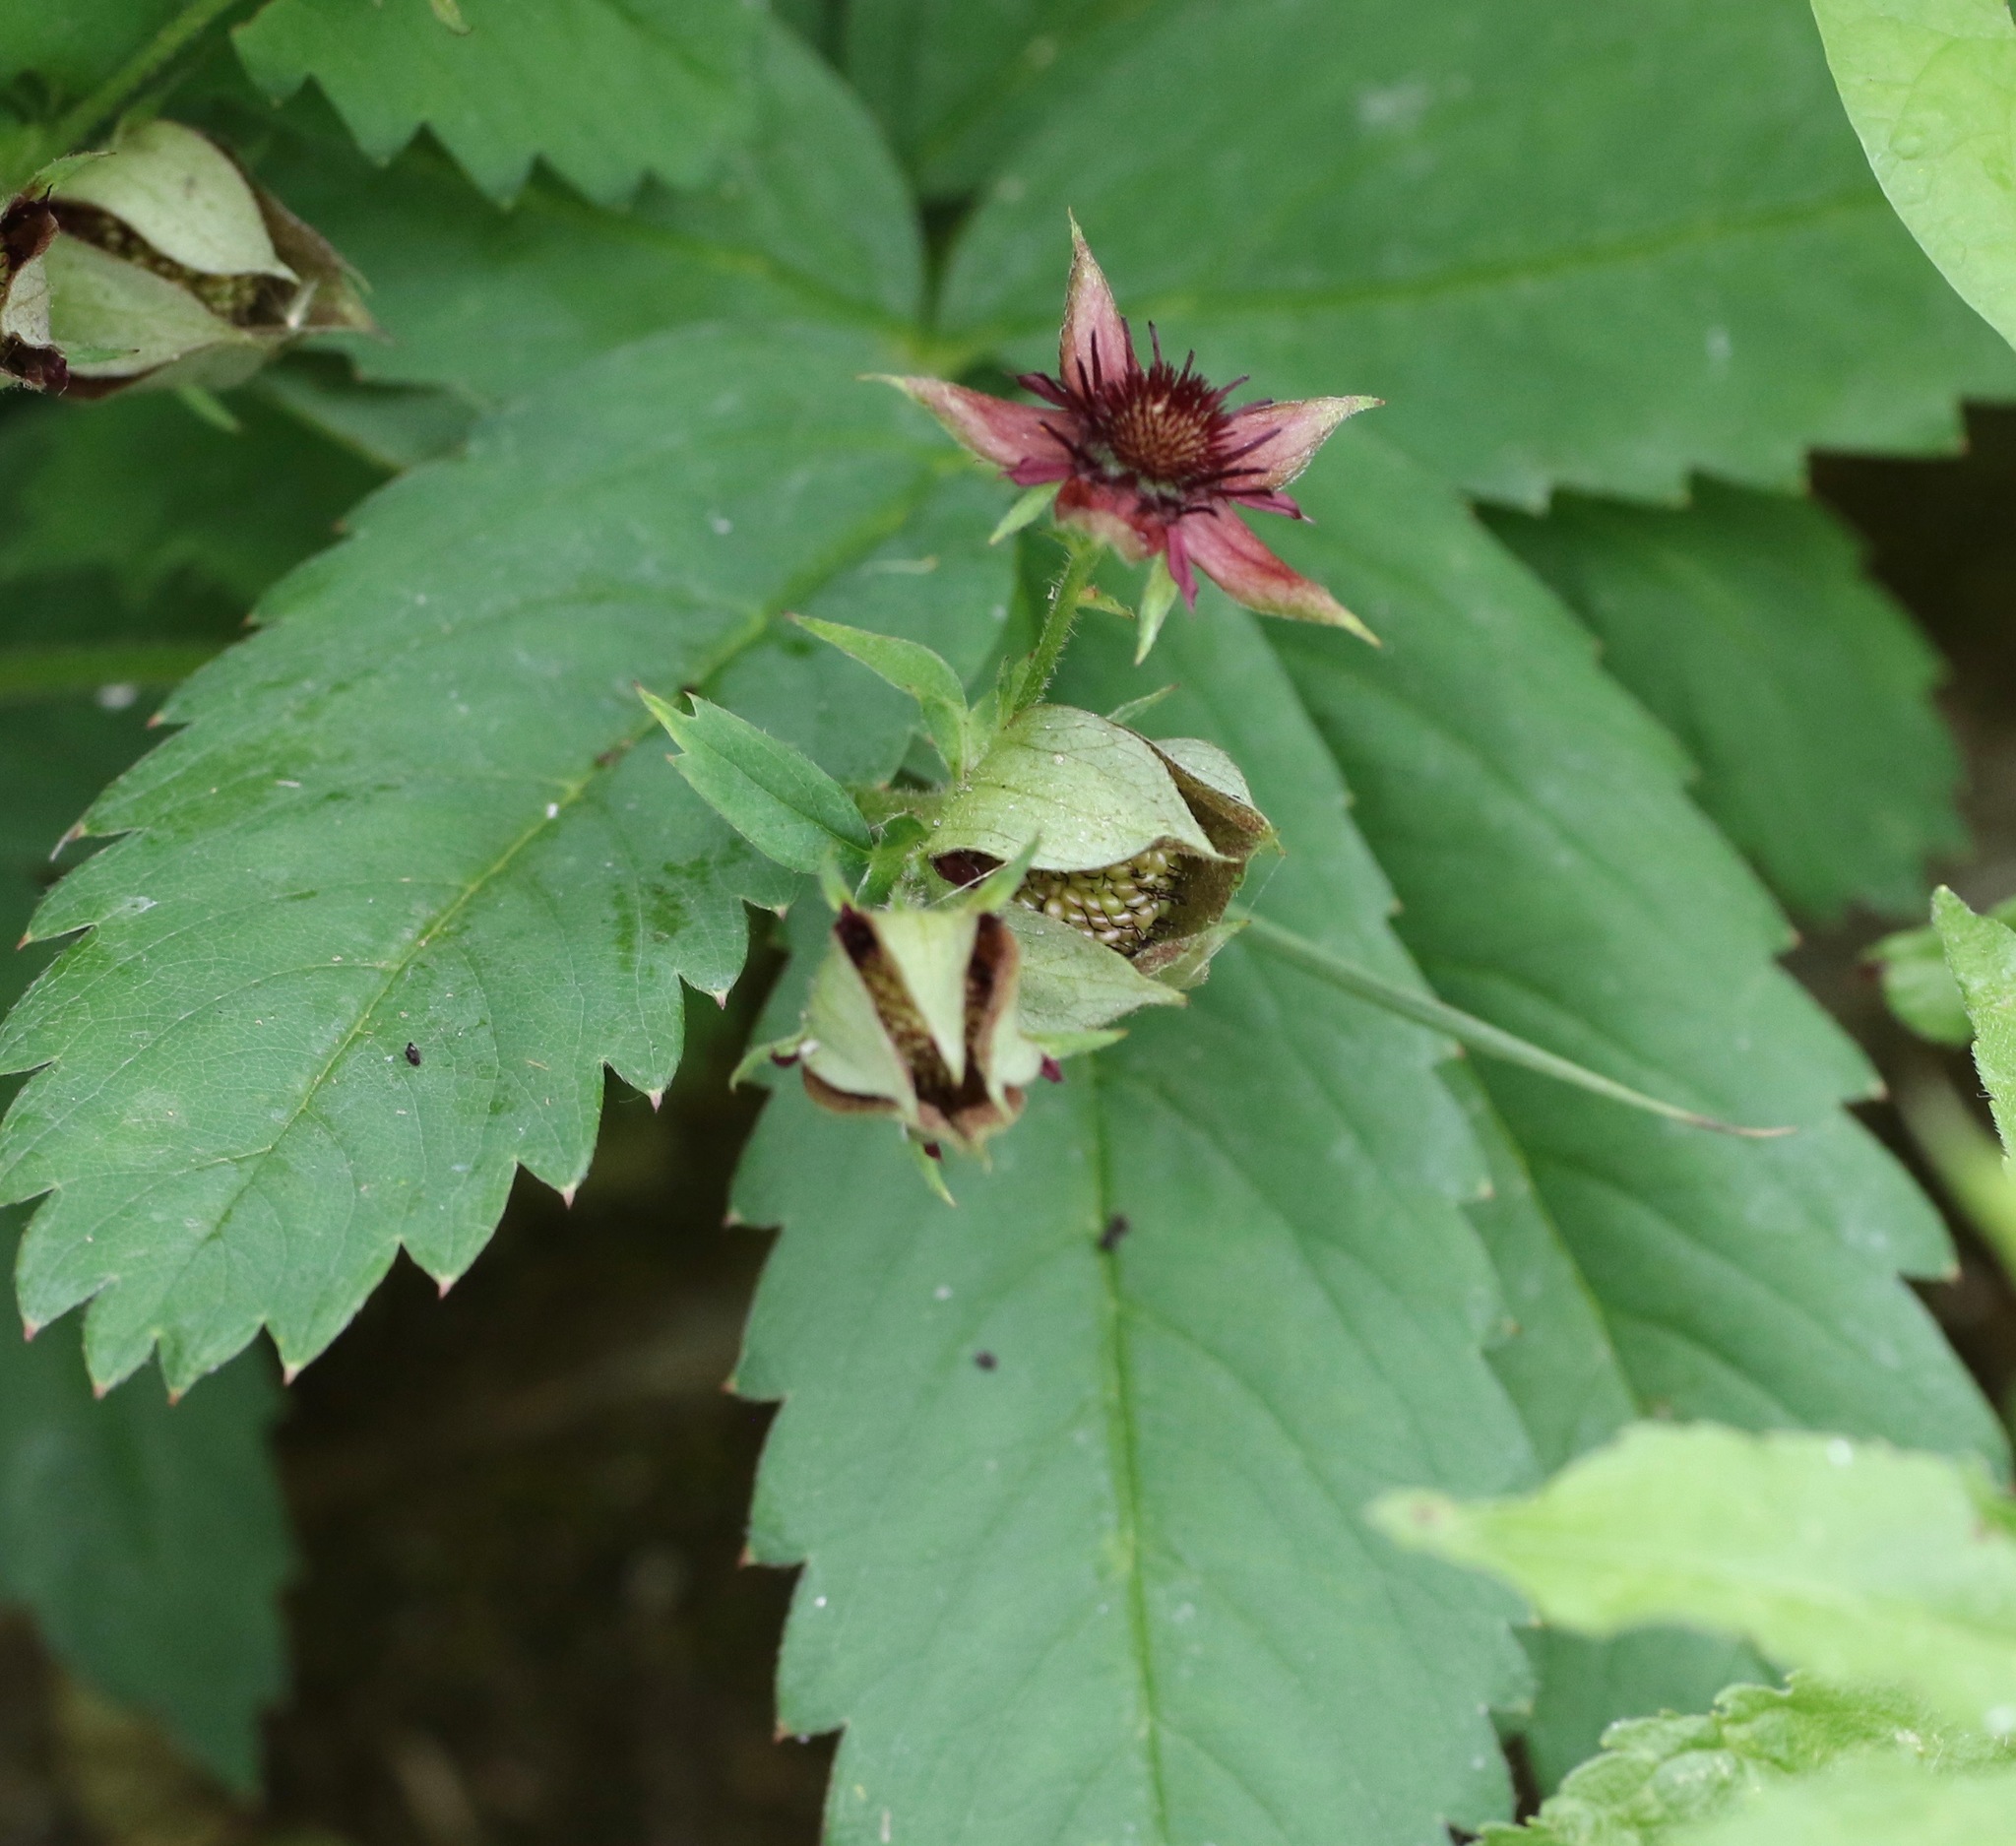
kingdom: Plantae
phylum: Tracheophyta
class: Magnoliopsida
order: Rosales
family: Rosaceae
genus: Comarum
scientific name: Comarum palustre
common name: Marsh cinquefoil
